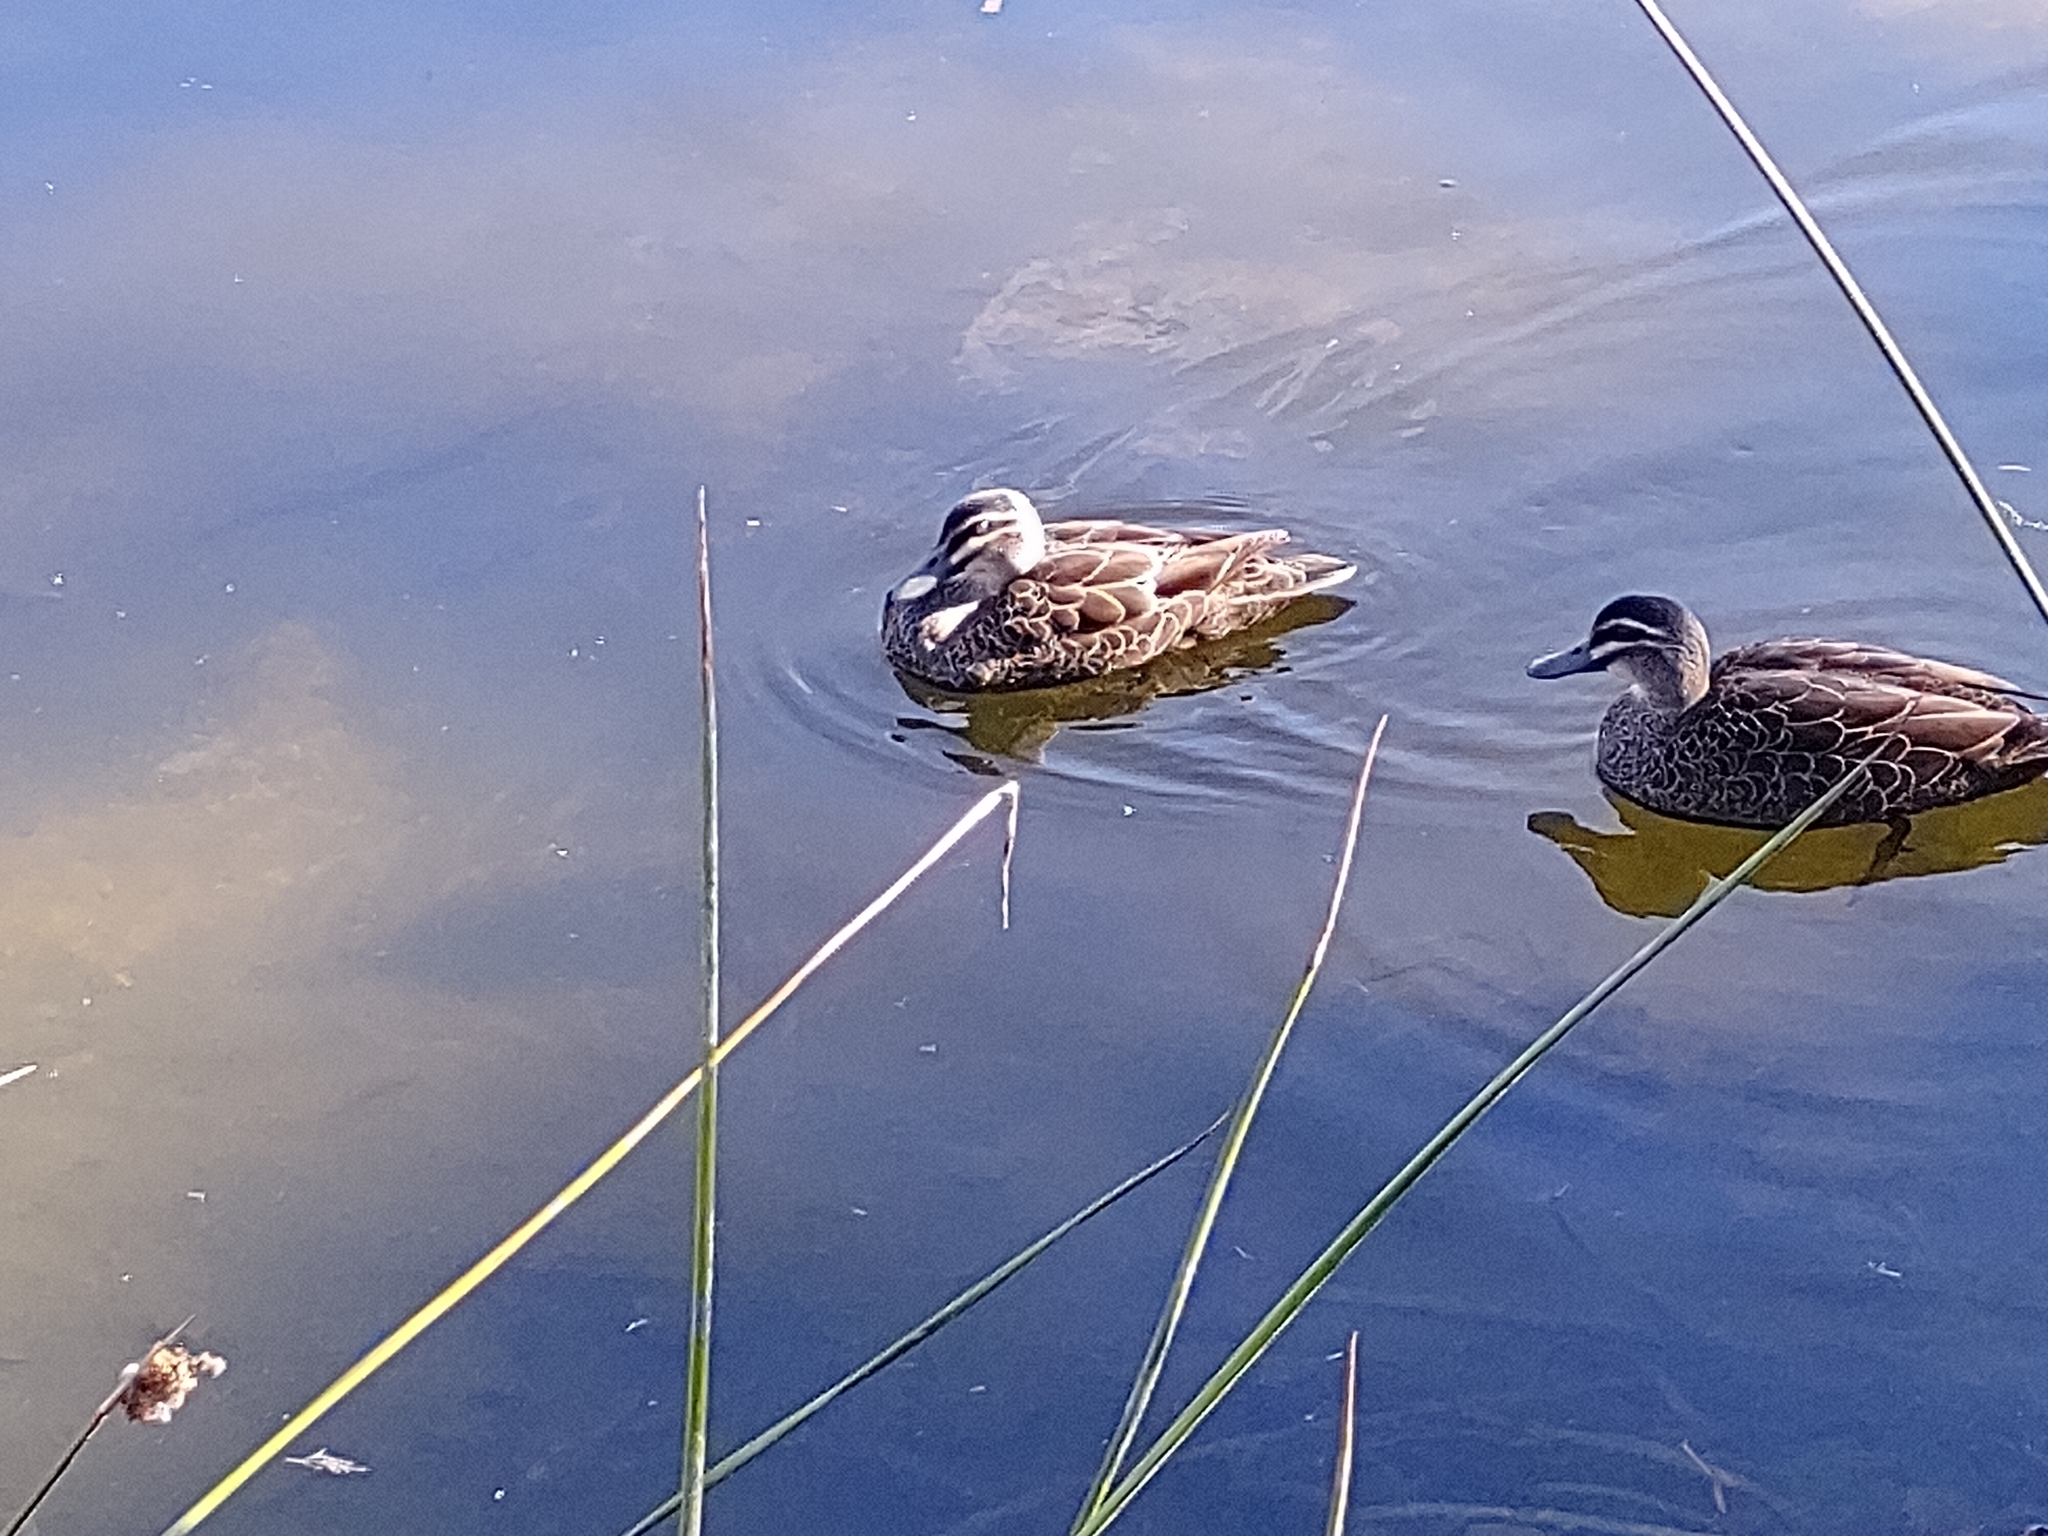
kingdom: Animalia
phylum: Chordata
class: Aves
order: Anseriformes
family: Anatidae
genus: Anas
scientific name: Anas superciliosa
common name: Pacific black duck
